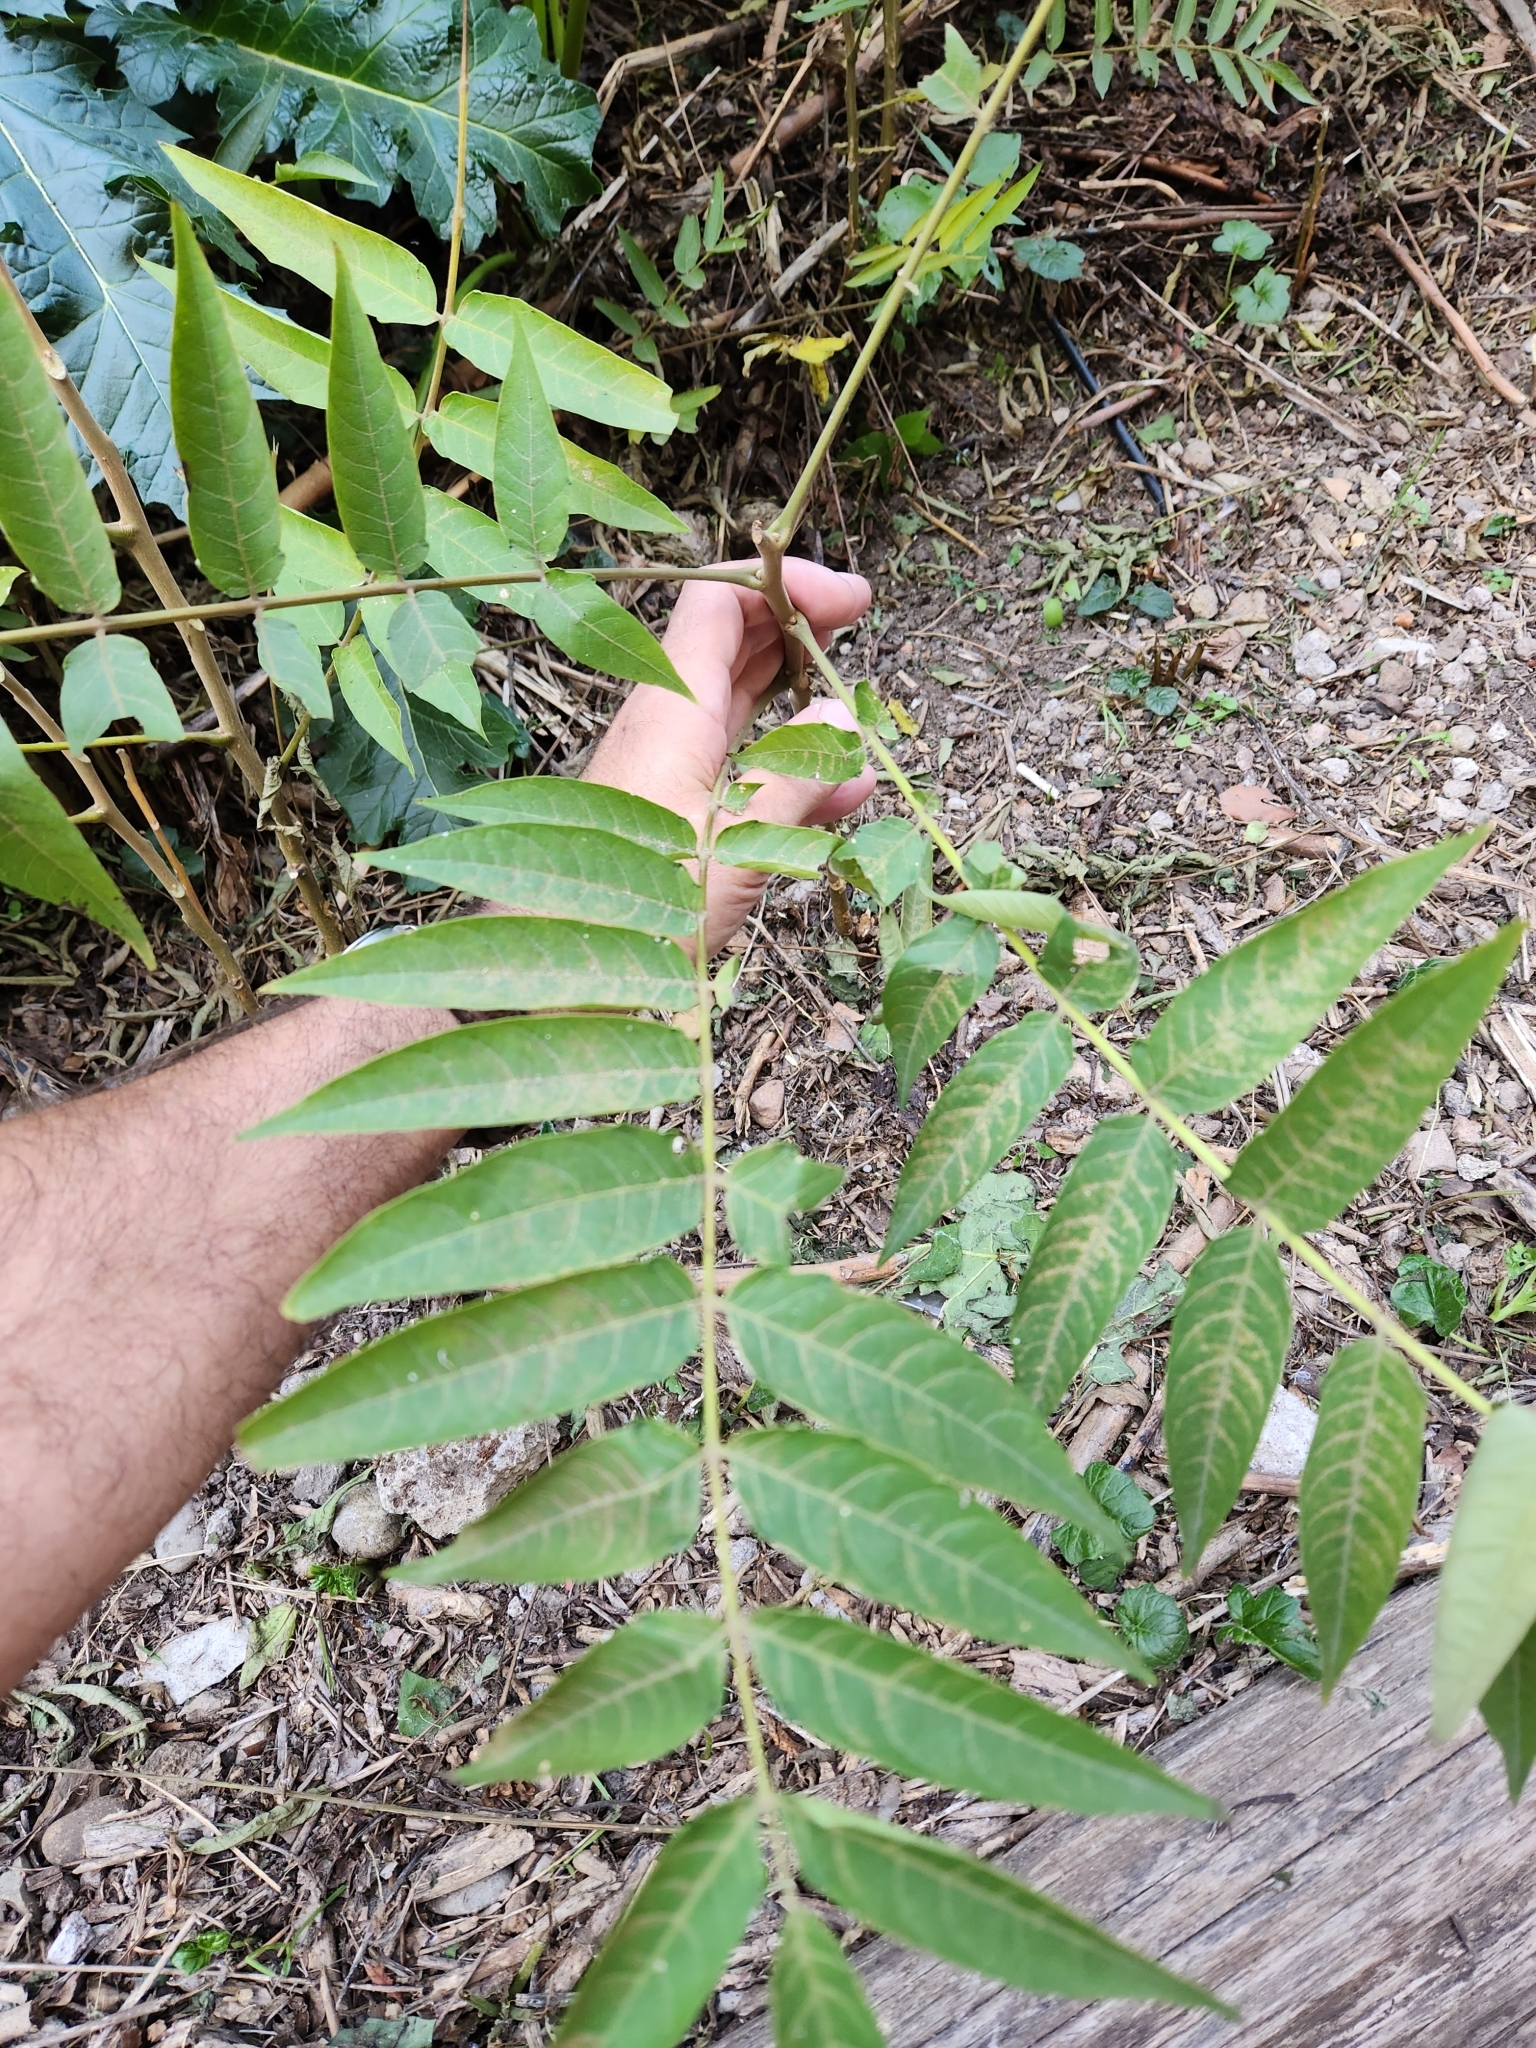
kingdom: Plantae
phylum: Tracheophyta
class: Magnoliopsida
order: Sapindales
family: Simaroubaceae
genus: Ailanthus
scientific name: Ailanthus altissima
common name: Tree-of-heaven
